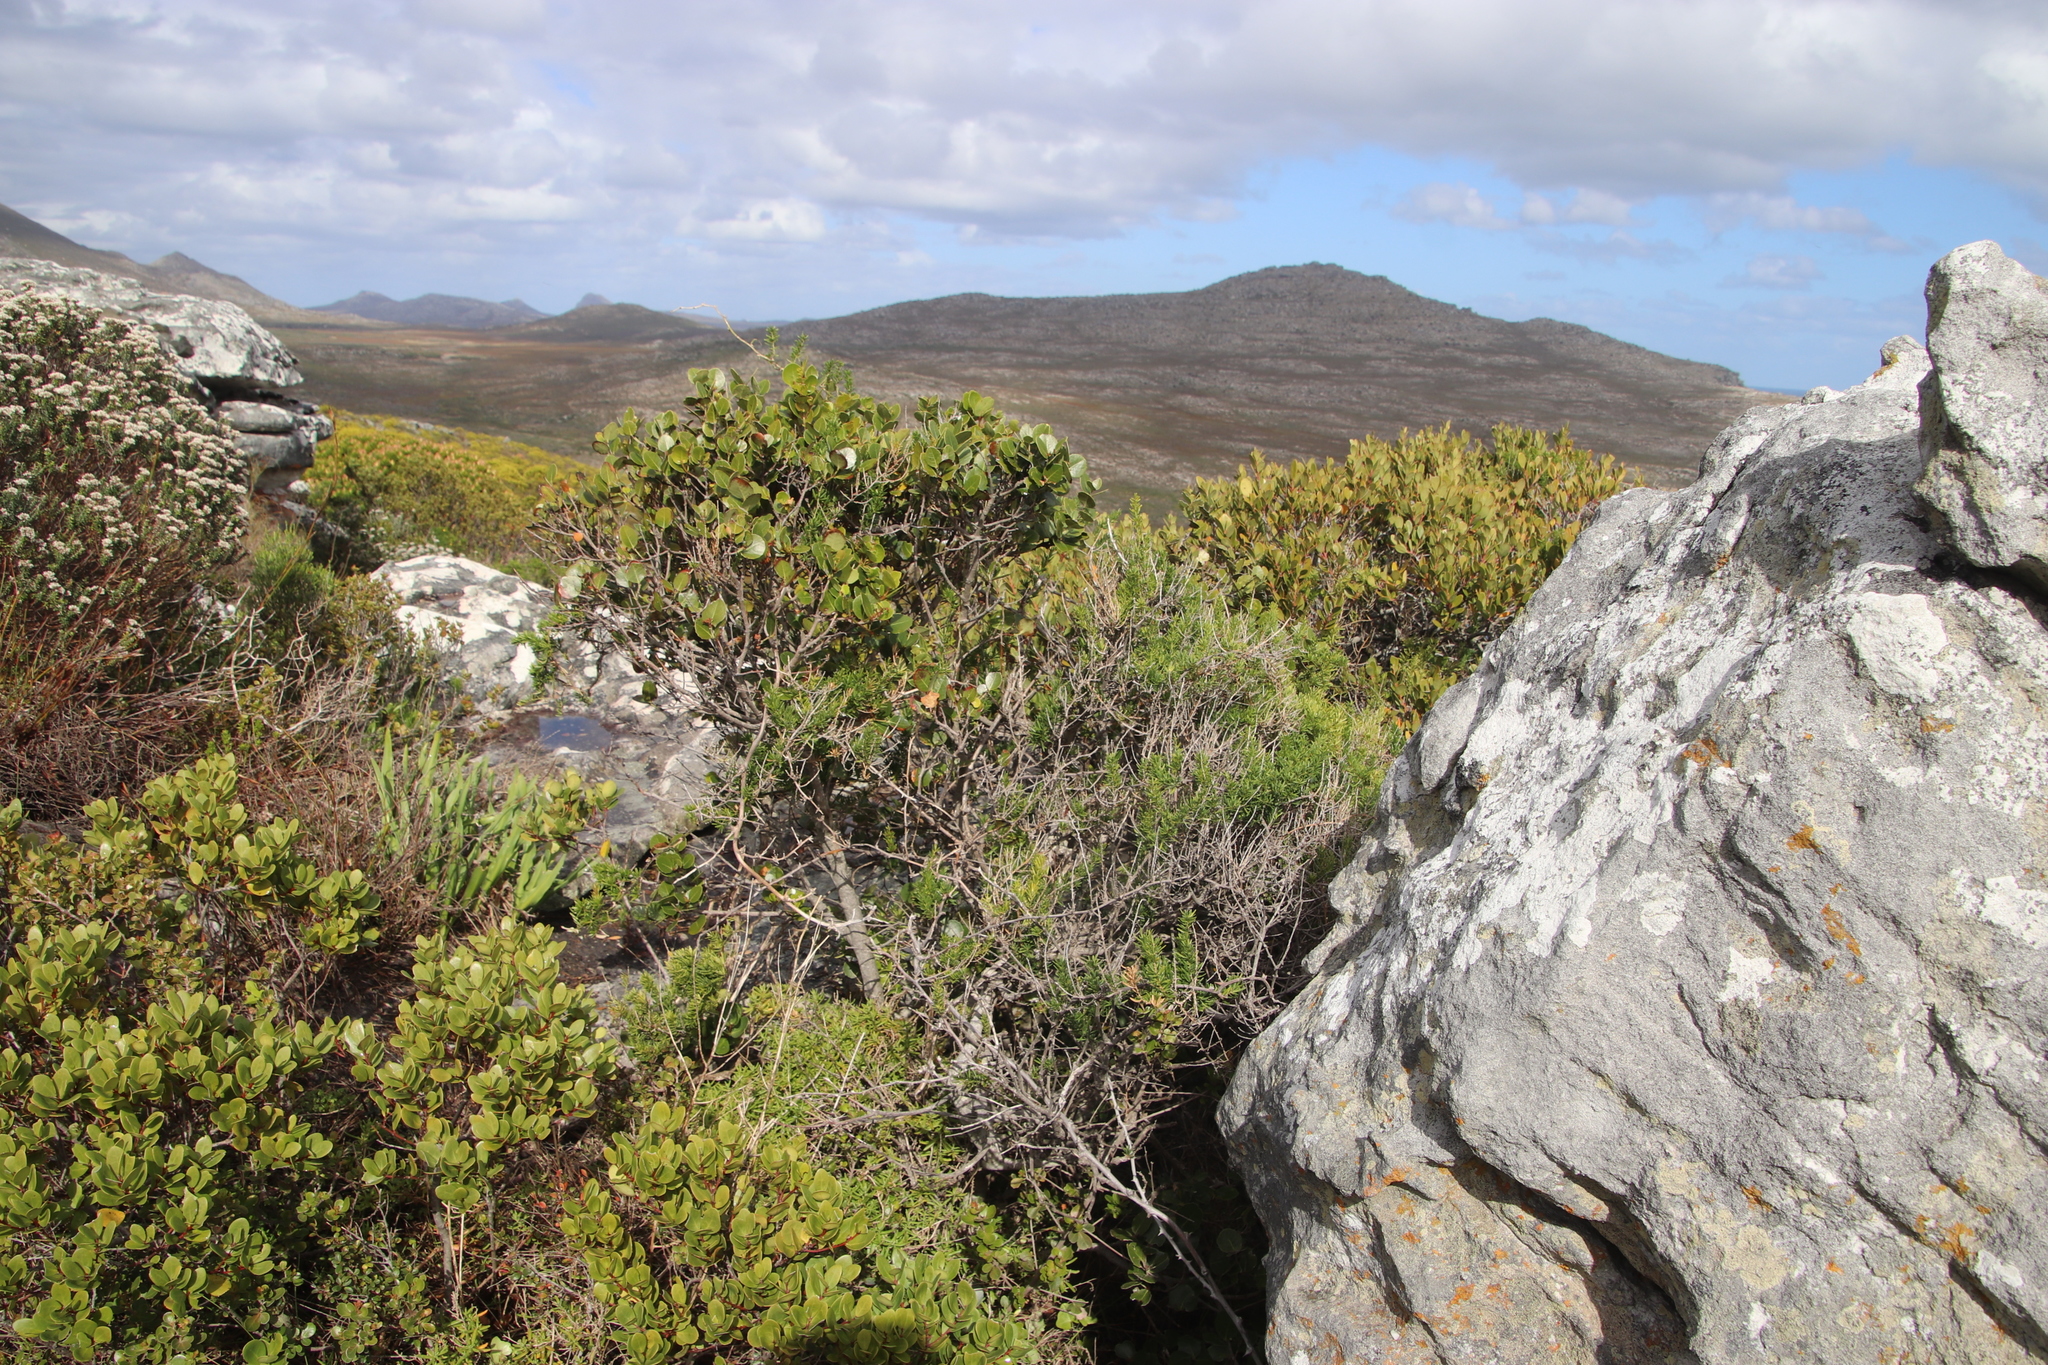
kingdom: Plantae
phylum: Tracheophyta
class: Magnoliopsida
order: Celastrales
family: Celastraceae
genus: Cassine
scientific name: Cassine peragua
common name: Cape saffron
